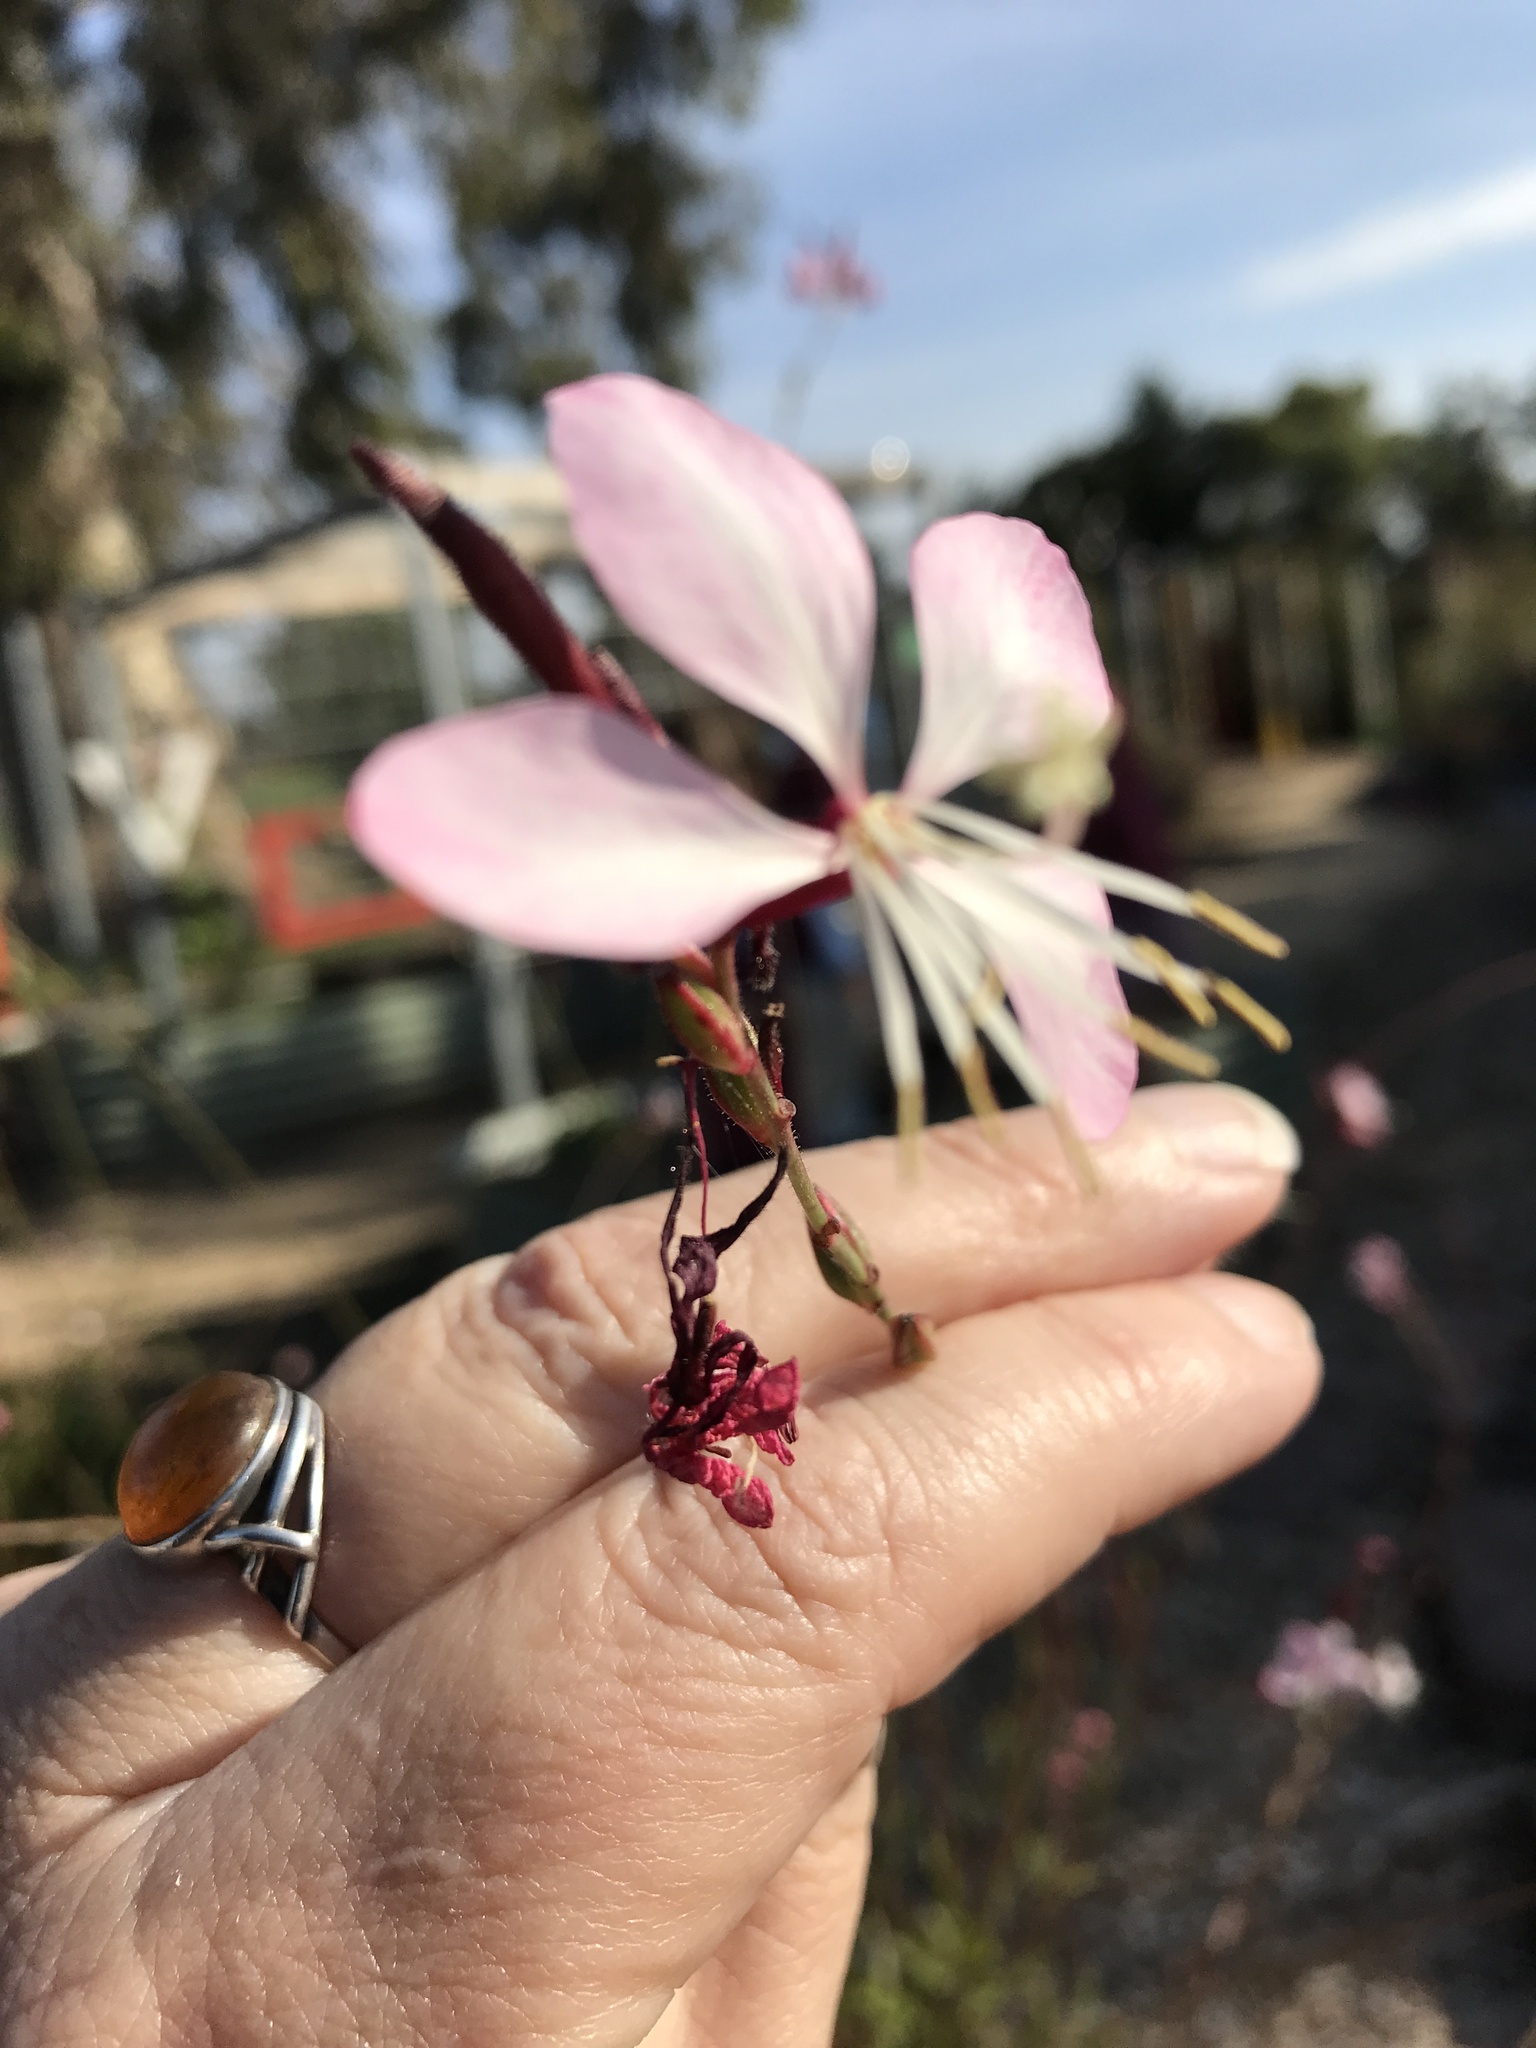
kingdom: Plantae
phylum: Tracheophyta
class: Magnoliopsida
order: Myrtales
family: Onagraceae
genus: Oenothera
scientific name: Oenothera lindheimeri
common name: Lindheimer's beeblossom
